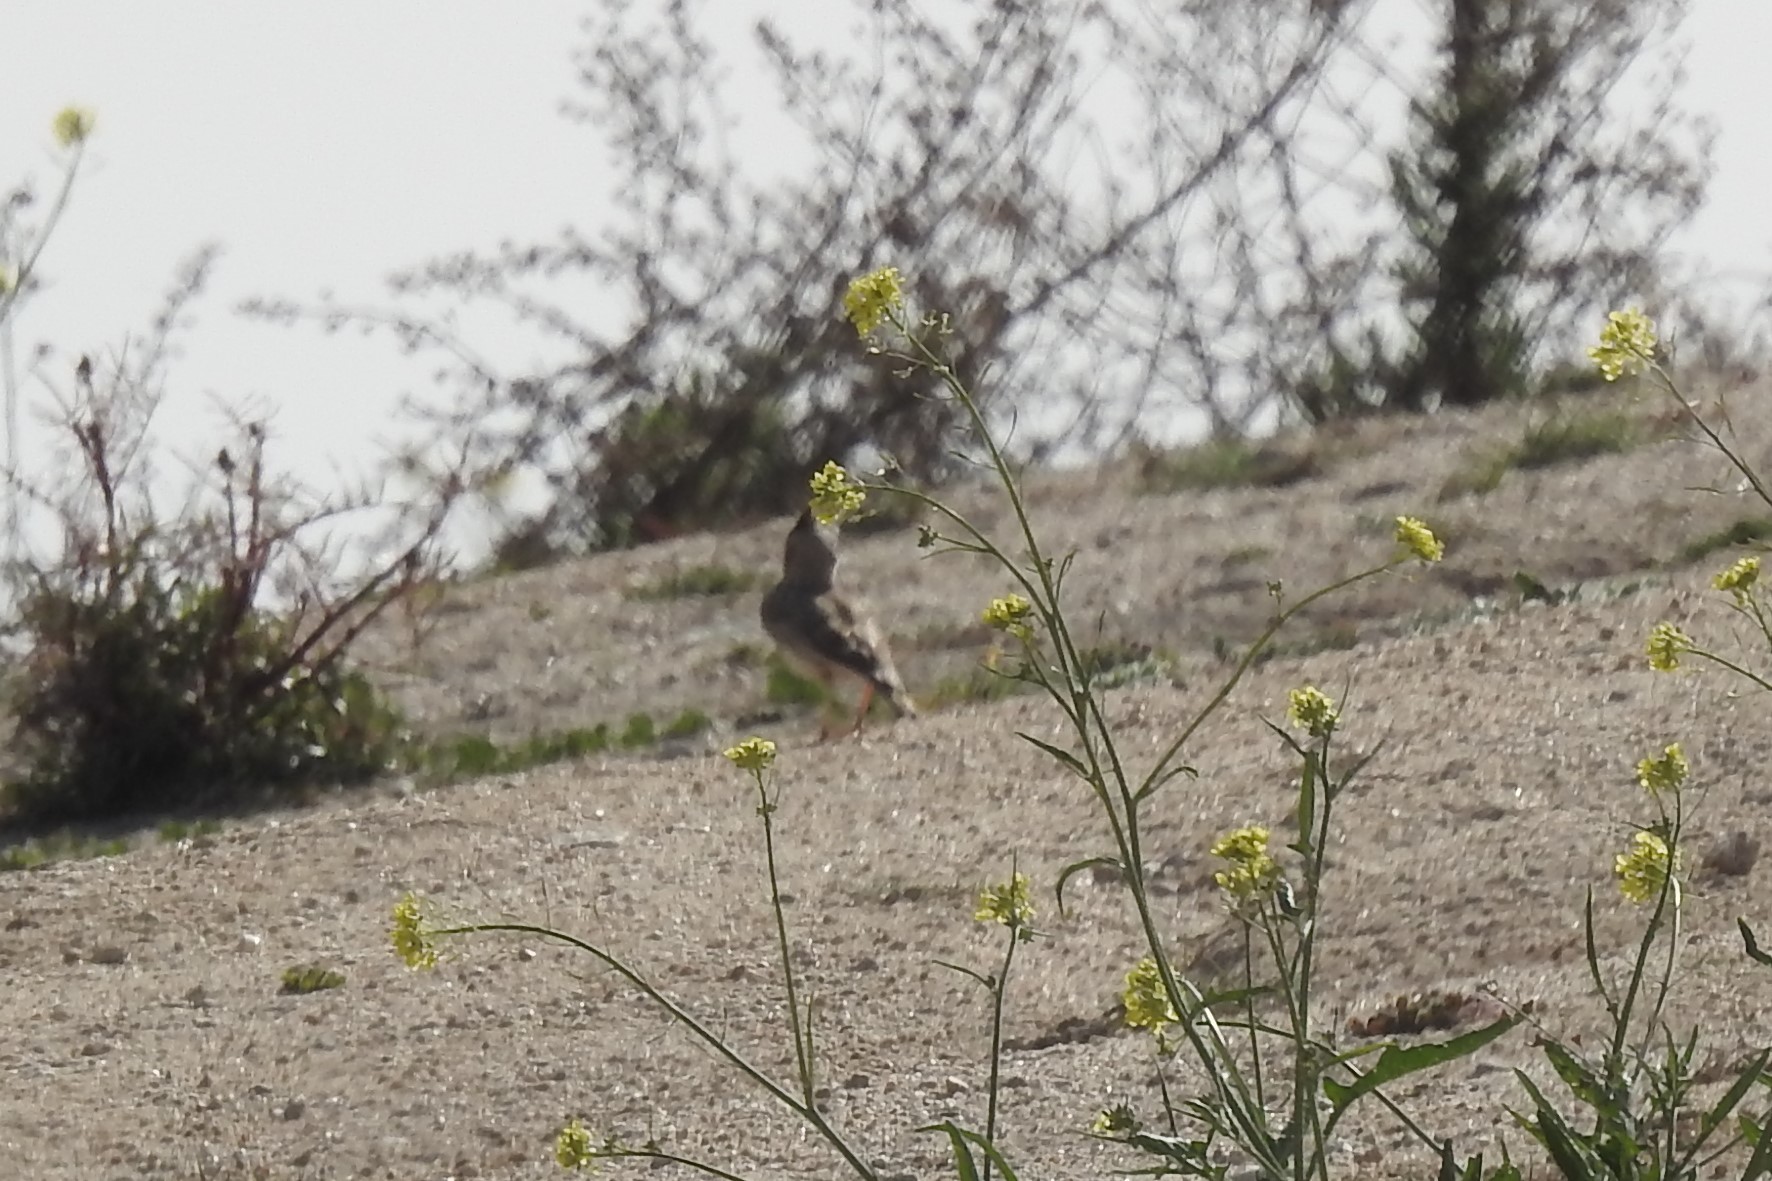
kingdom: Animalia
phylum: Chordata
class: Aves
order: Passeriformes
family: Alaudidae
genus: Galerida
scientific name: Galerida cristata
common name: Crested lark
